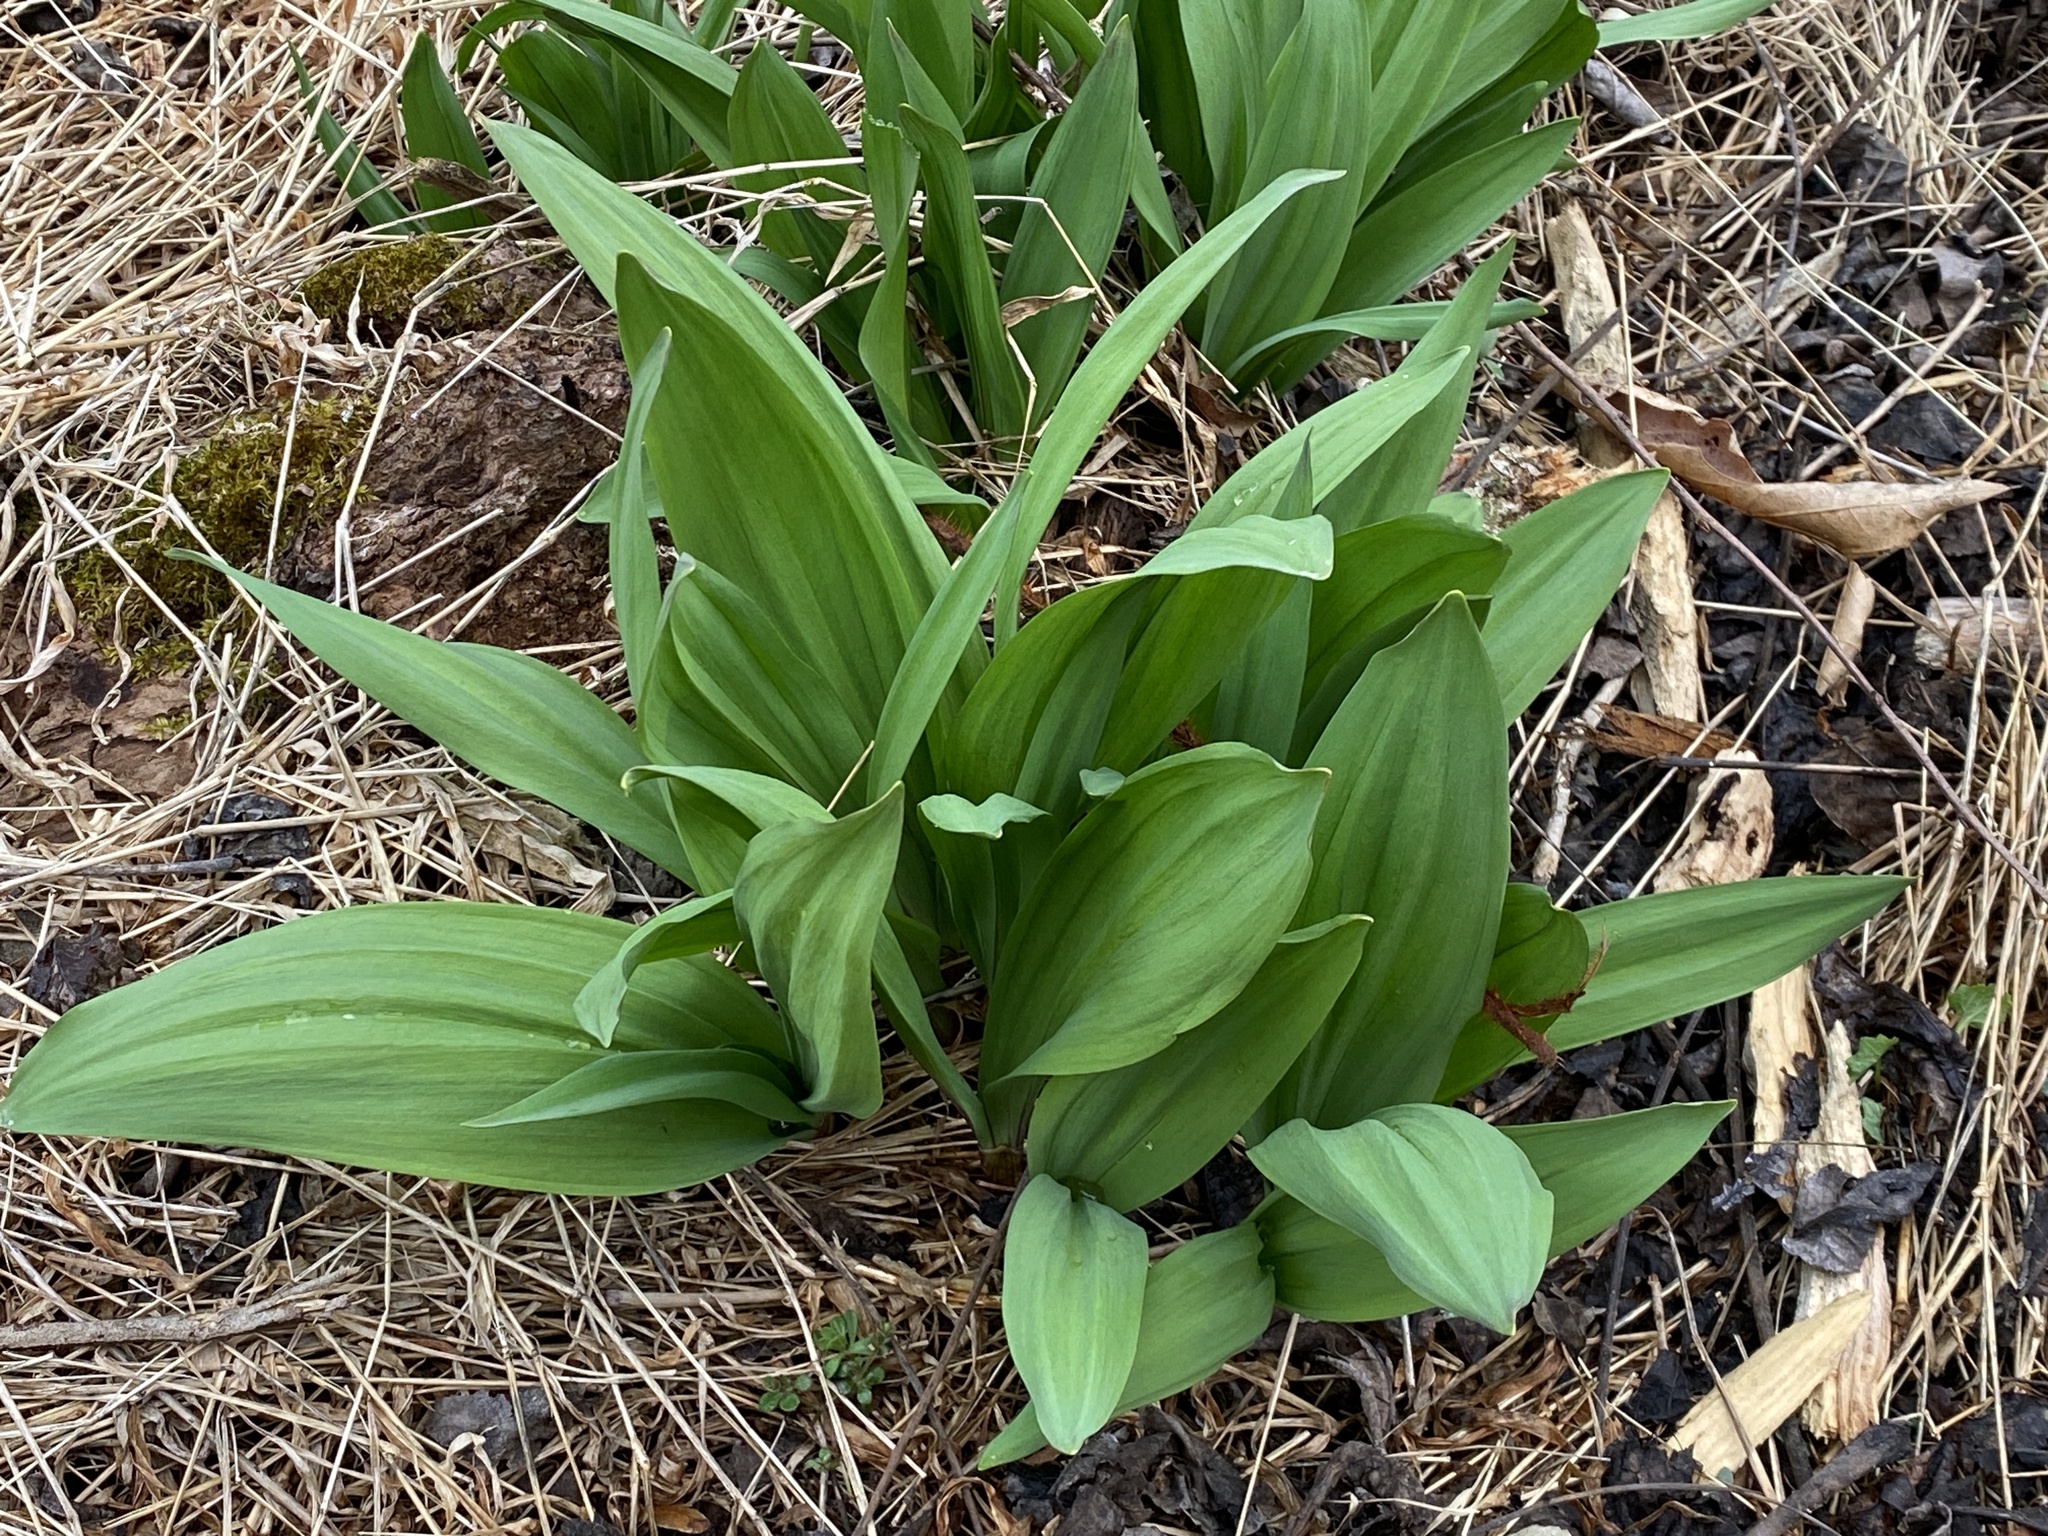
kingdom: Plantae
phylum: Tracheophyta
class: Liliopsida
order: Asparagales
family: Amaryllidaceae
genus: Allium
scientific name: Allium tricoccum
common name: Ramp
